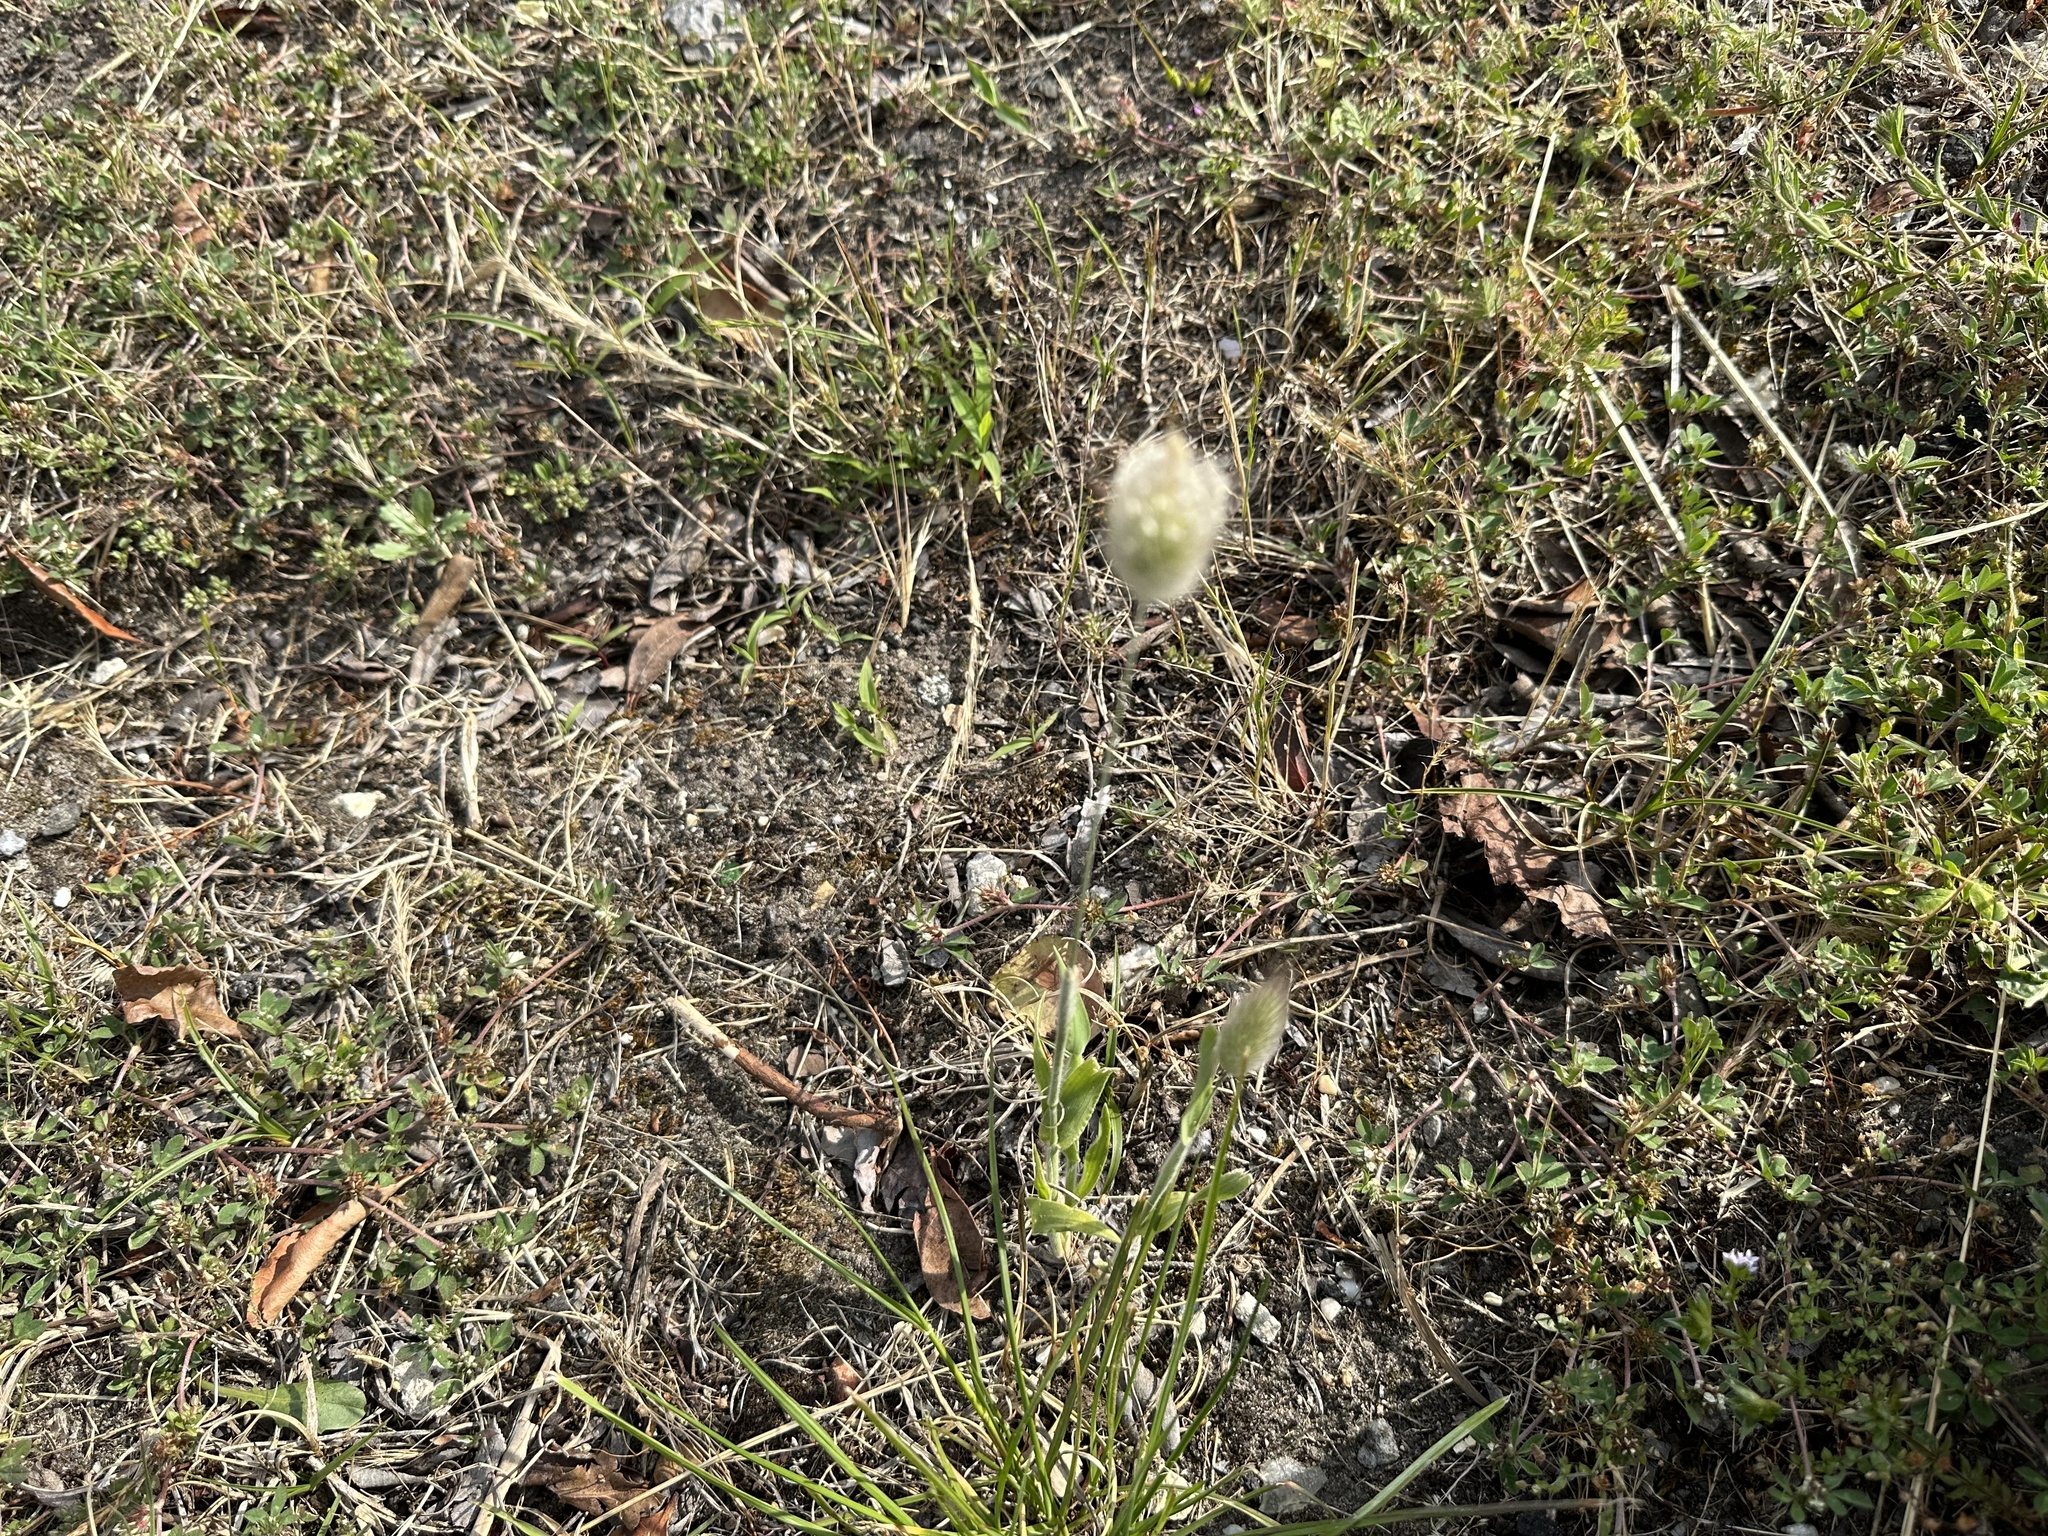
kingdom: Plantae
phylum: Tracheophyta
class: Liliopsida
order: Poales
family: Poaceae
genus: Lagurus
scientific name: Lagurus ovatus
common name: Hare's-tail
